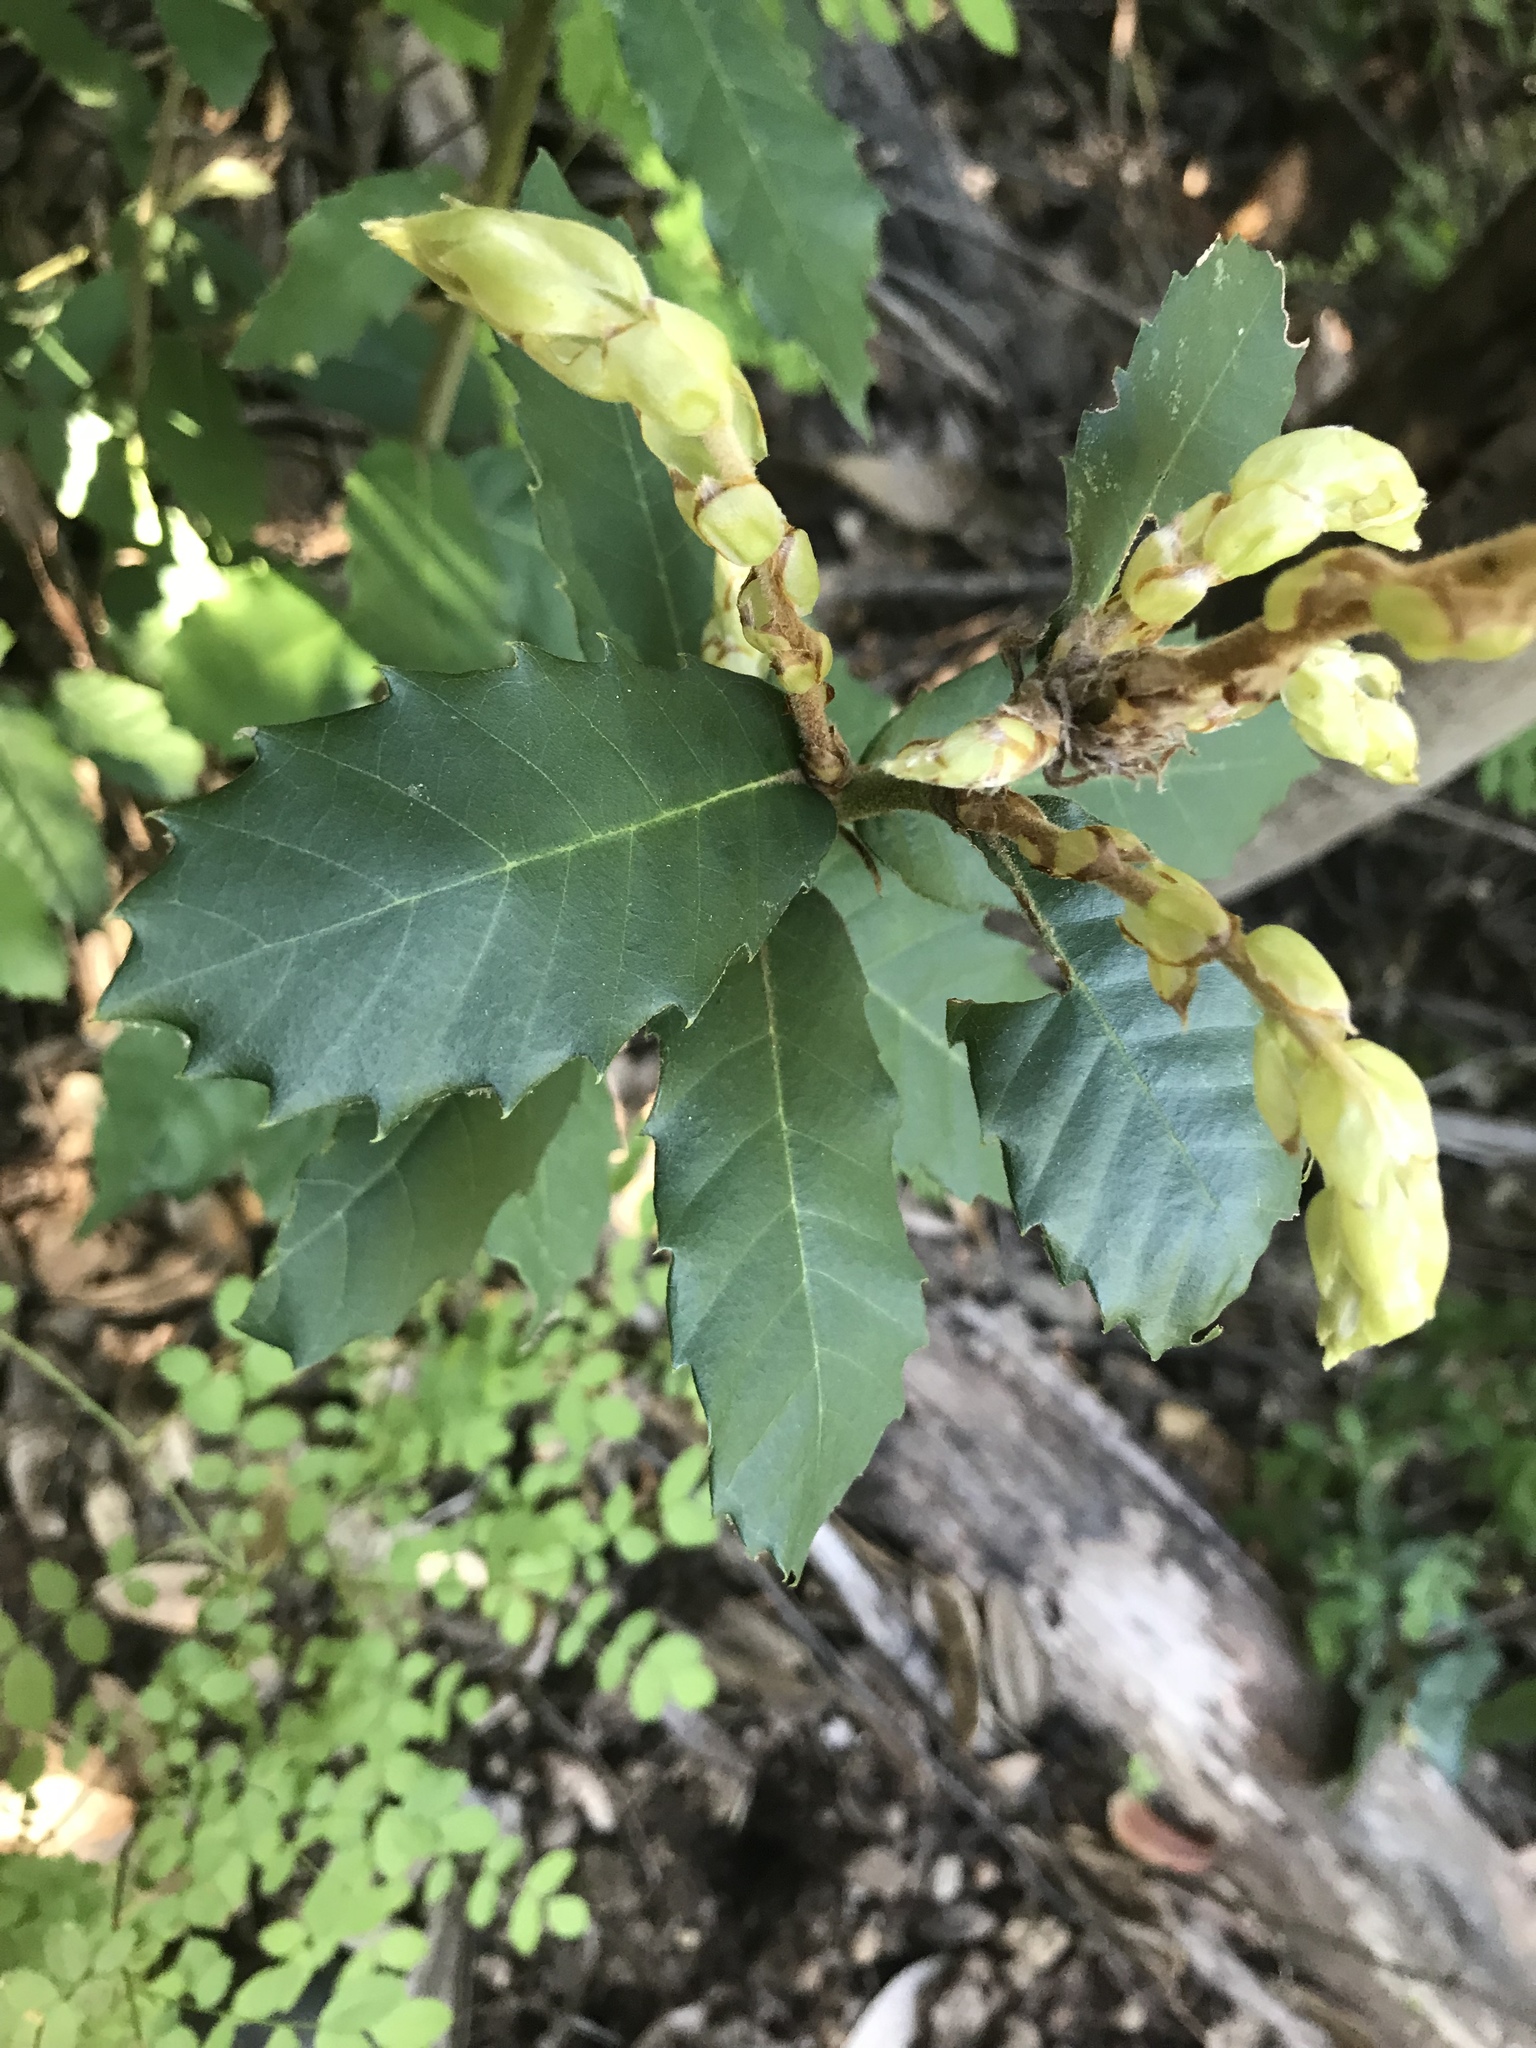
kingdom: Plantae
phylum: Tracheophyta
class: Magnoliopsida
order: Fagales
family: Fagaceae
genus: Notholithocarpus
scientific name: Notholithocarpus densiflorus
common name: Tan bark oak
